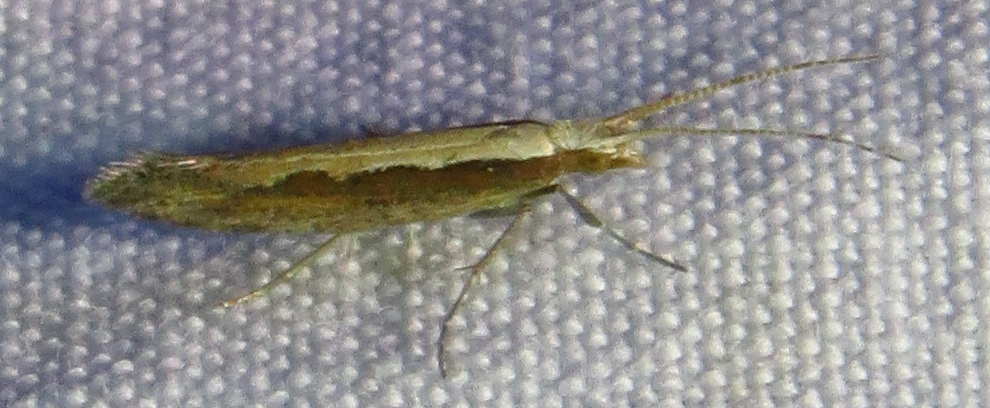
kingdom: Animalia
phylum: Arthropoda
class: Insecta
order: Lepidoptera
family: Plutellidae
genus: Plutella
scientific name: Plutella xylostella
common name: Diamond-back moth
